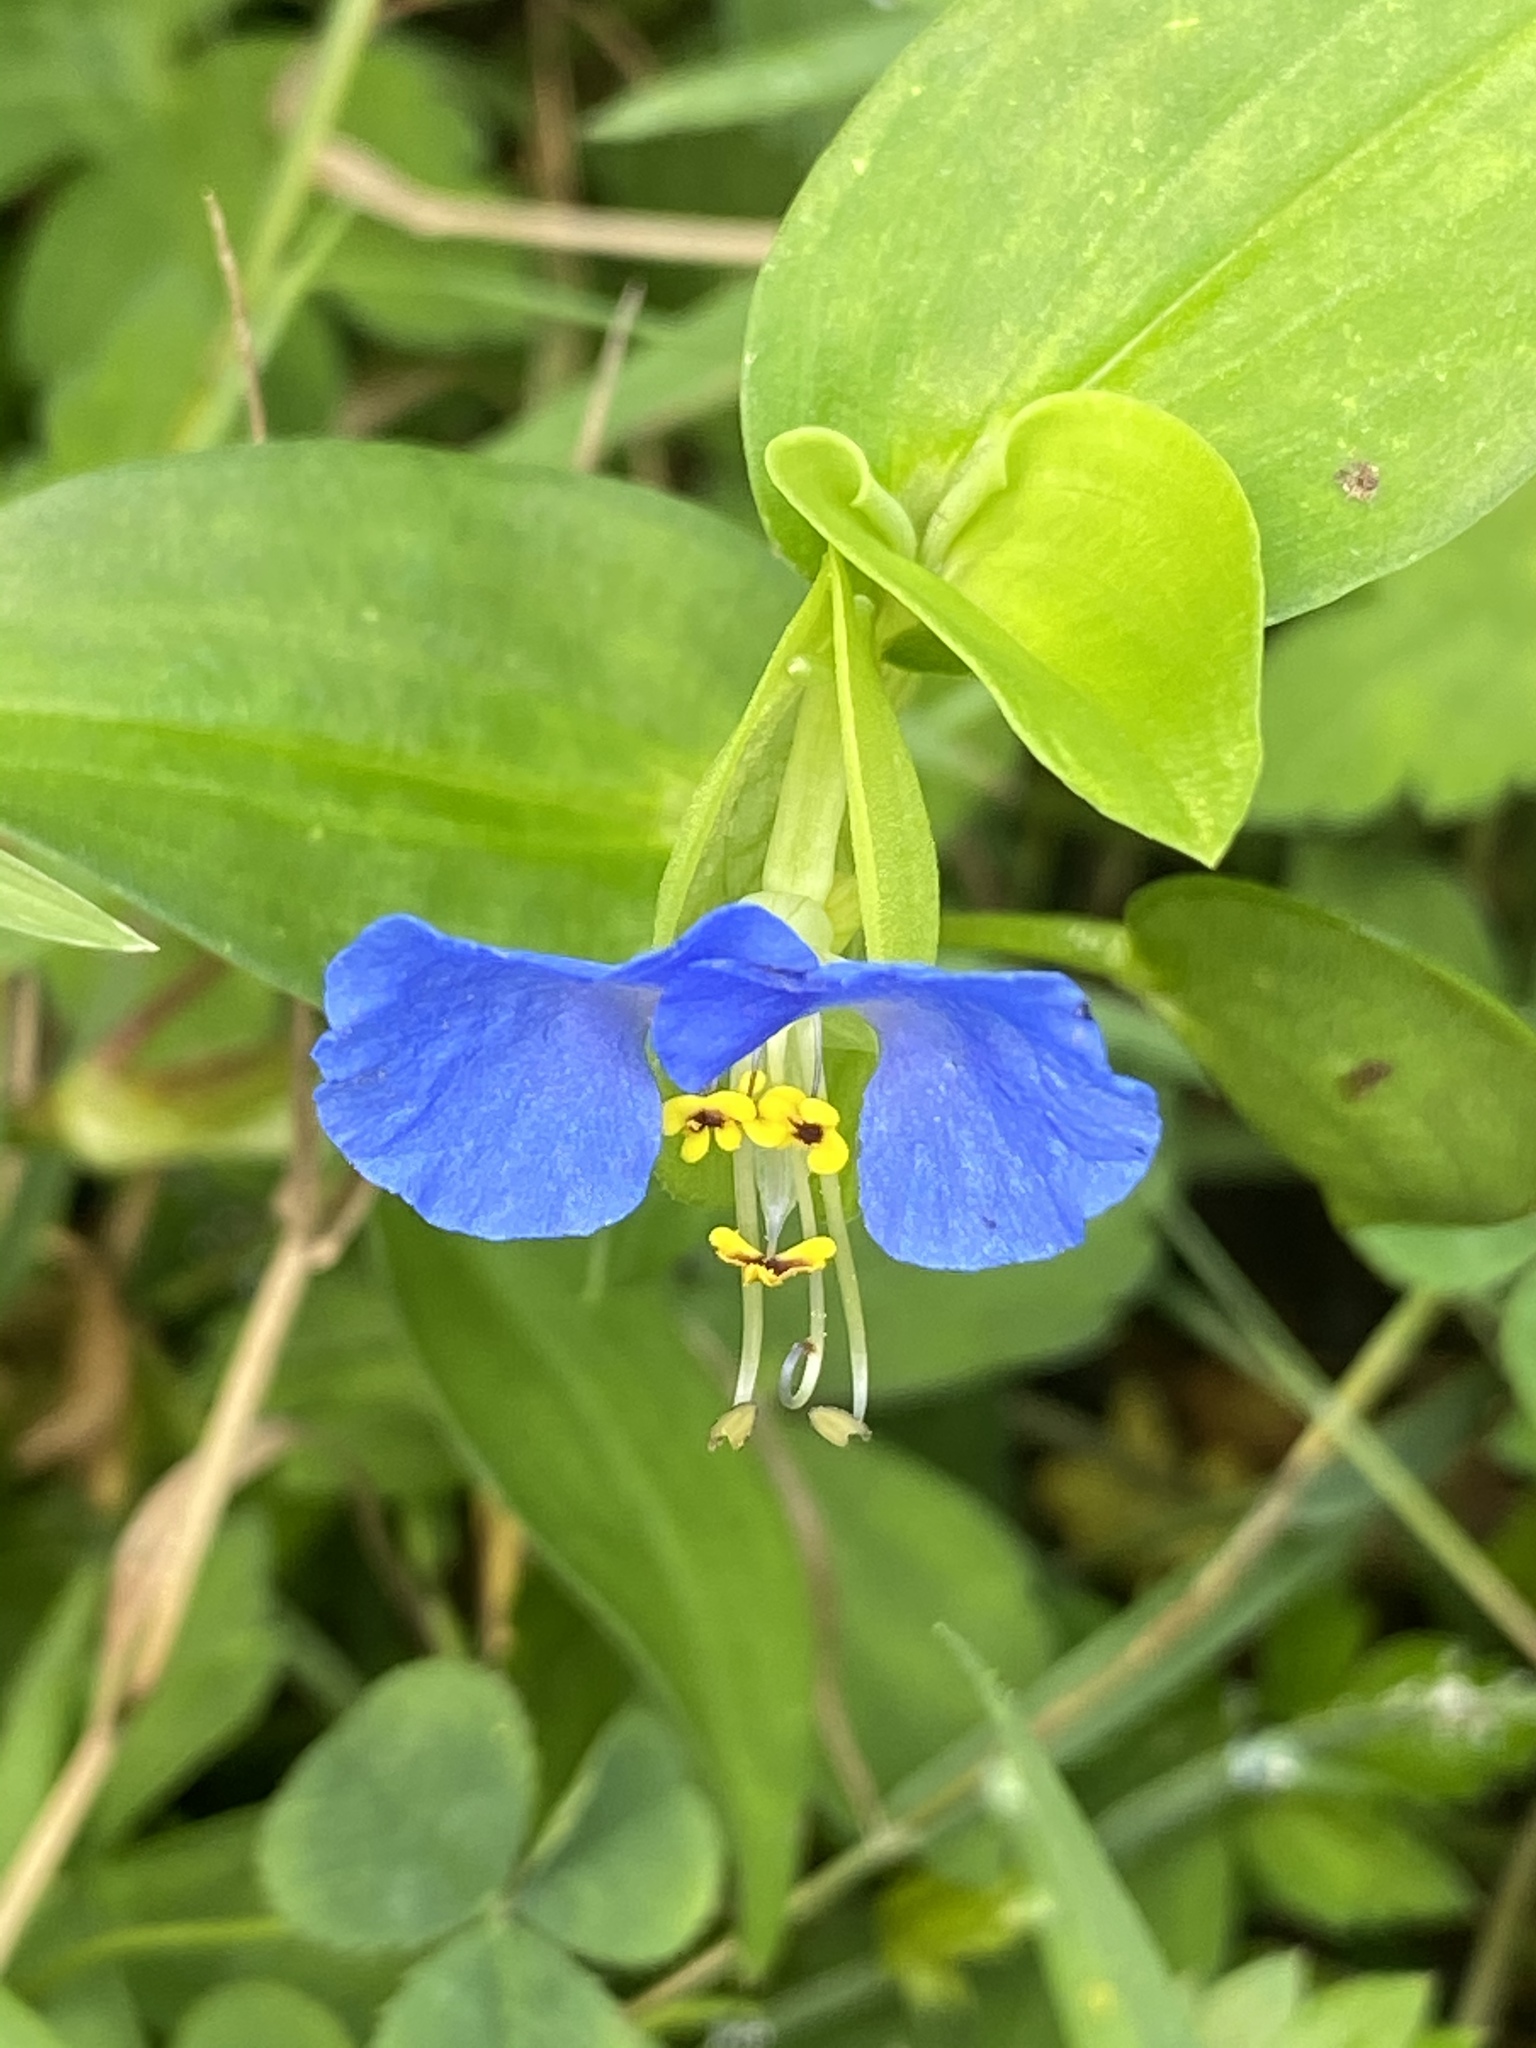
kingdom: Plantae
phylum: Tracheophyta
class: Liliopsida
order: Commelinales
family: Commelinaceae
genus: Commelina
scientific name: Commelina communis
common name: Asiatic dayflower
